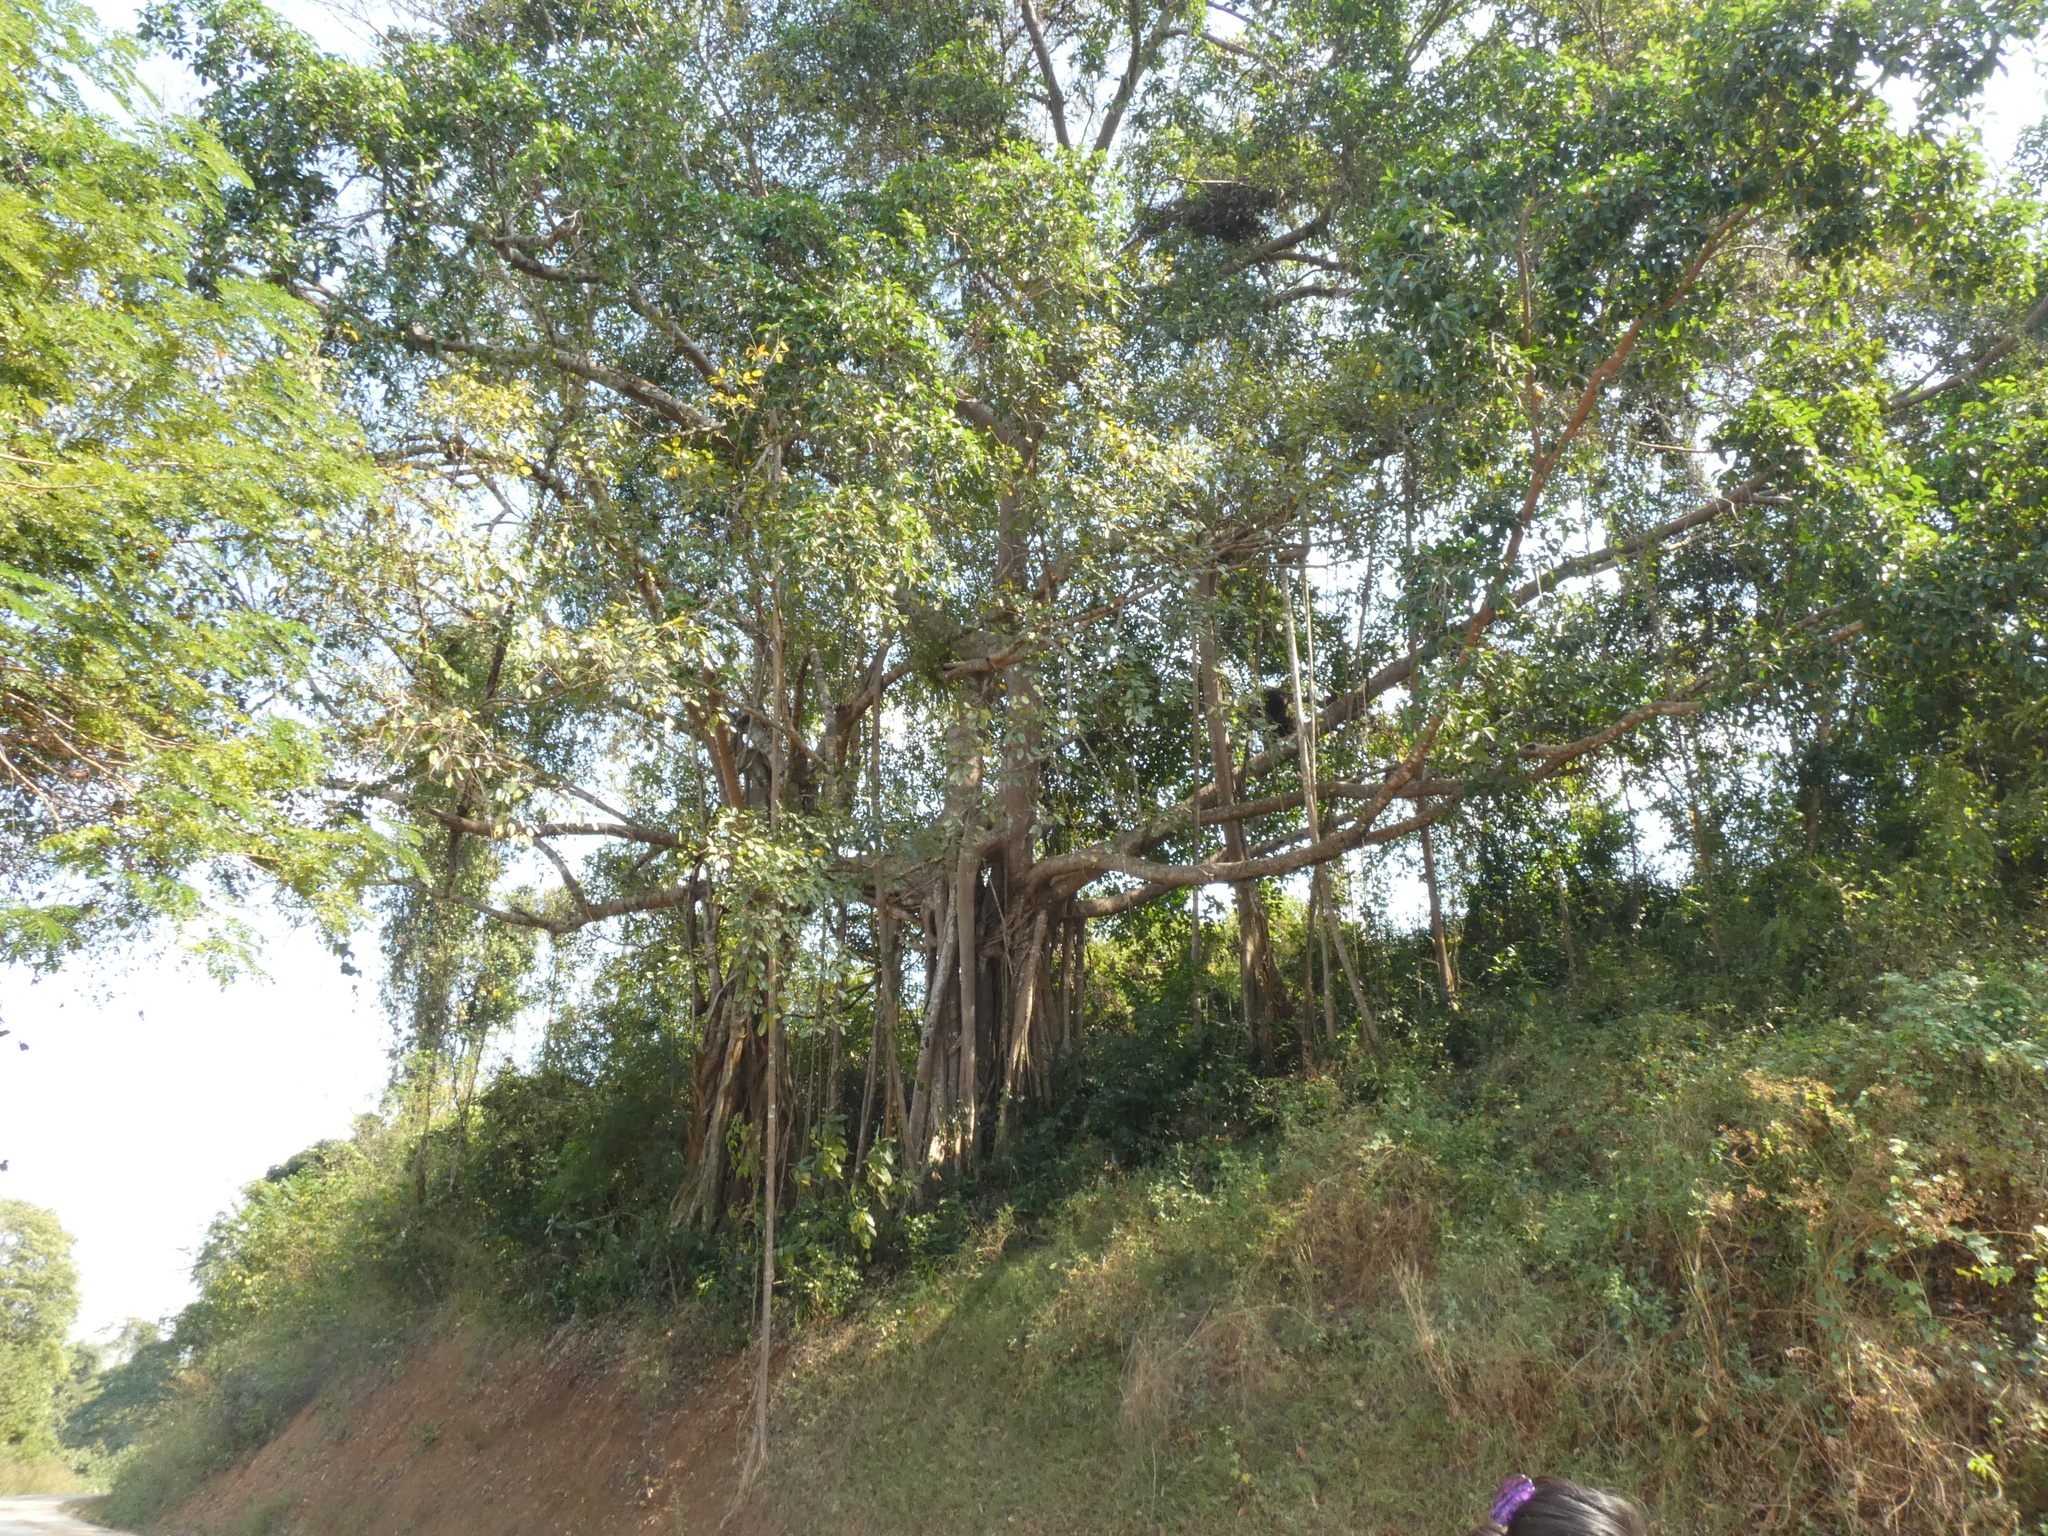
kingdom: Plantae
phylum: Tracheophyta
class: Magnoliopsida
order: Rosales
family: Moraceae
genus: Ficus
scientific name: Ficus altissima
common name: Council tree
